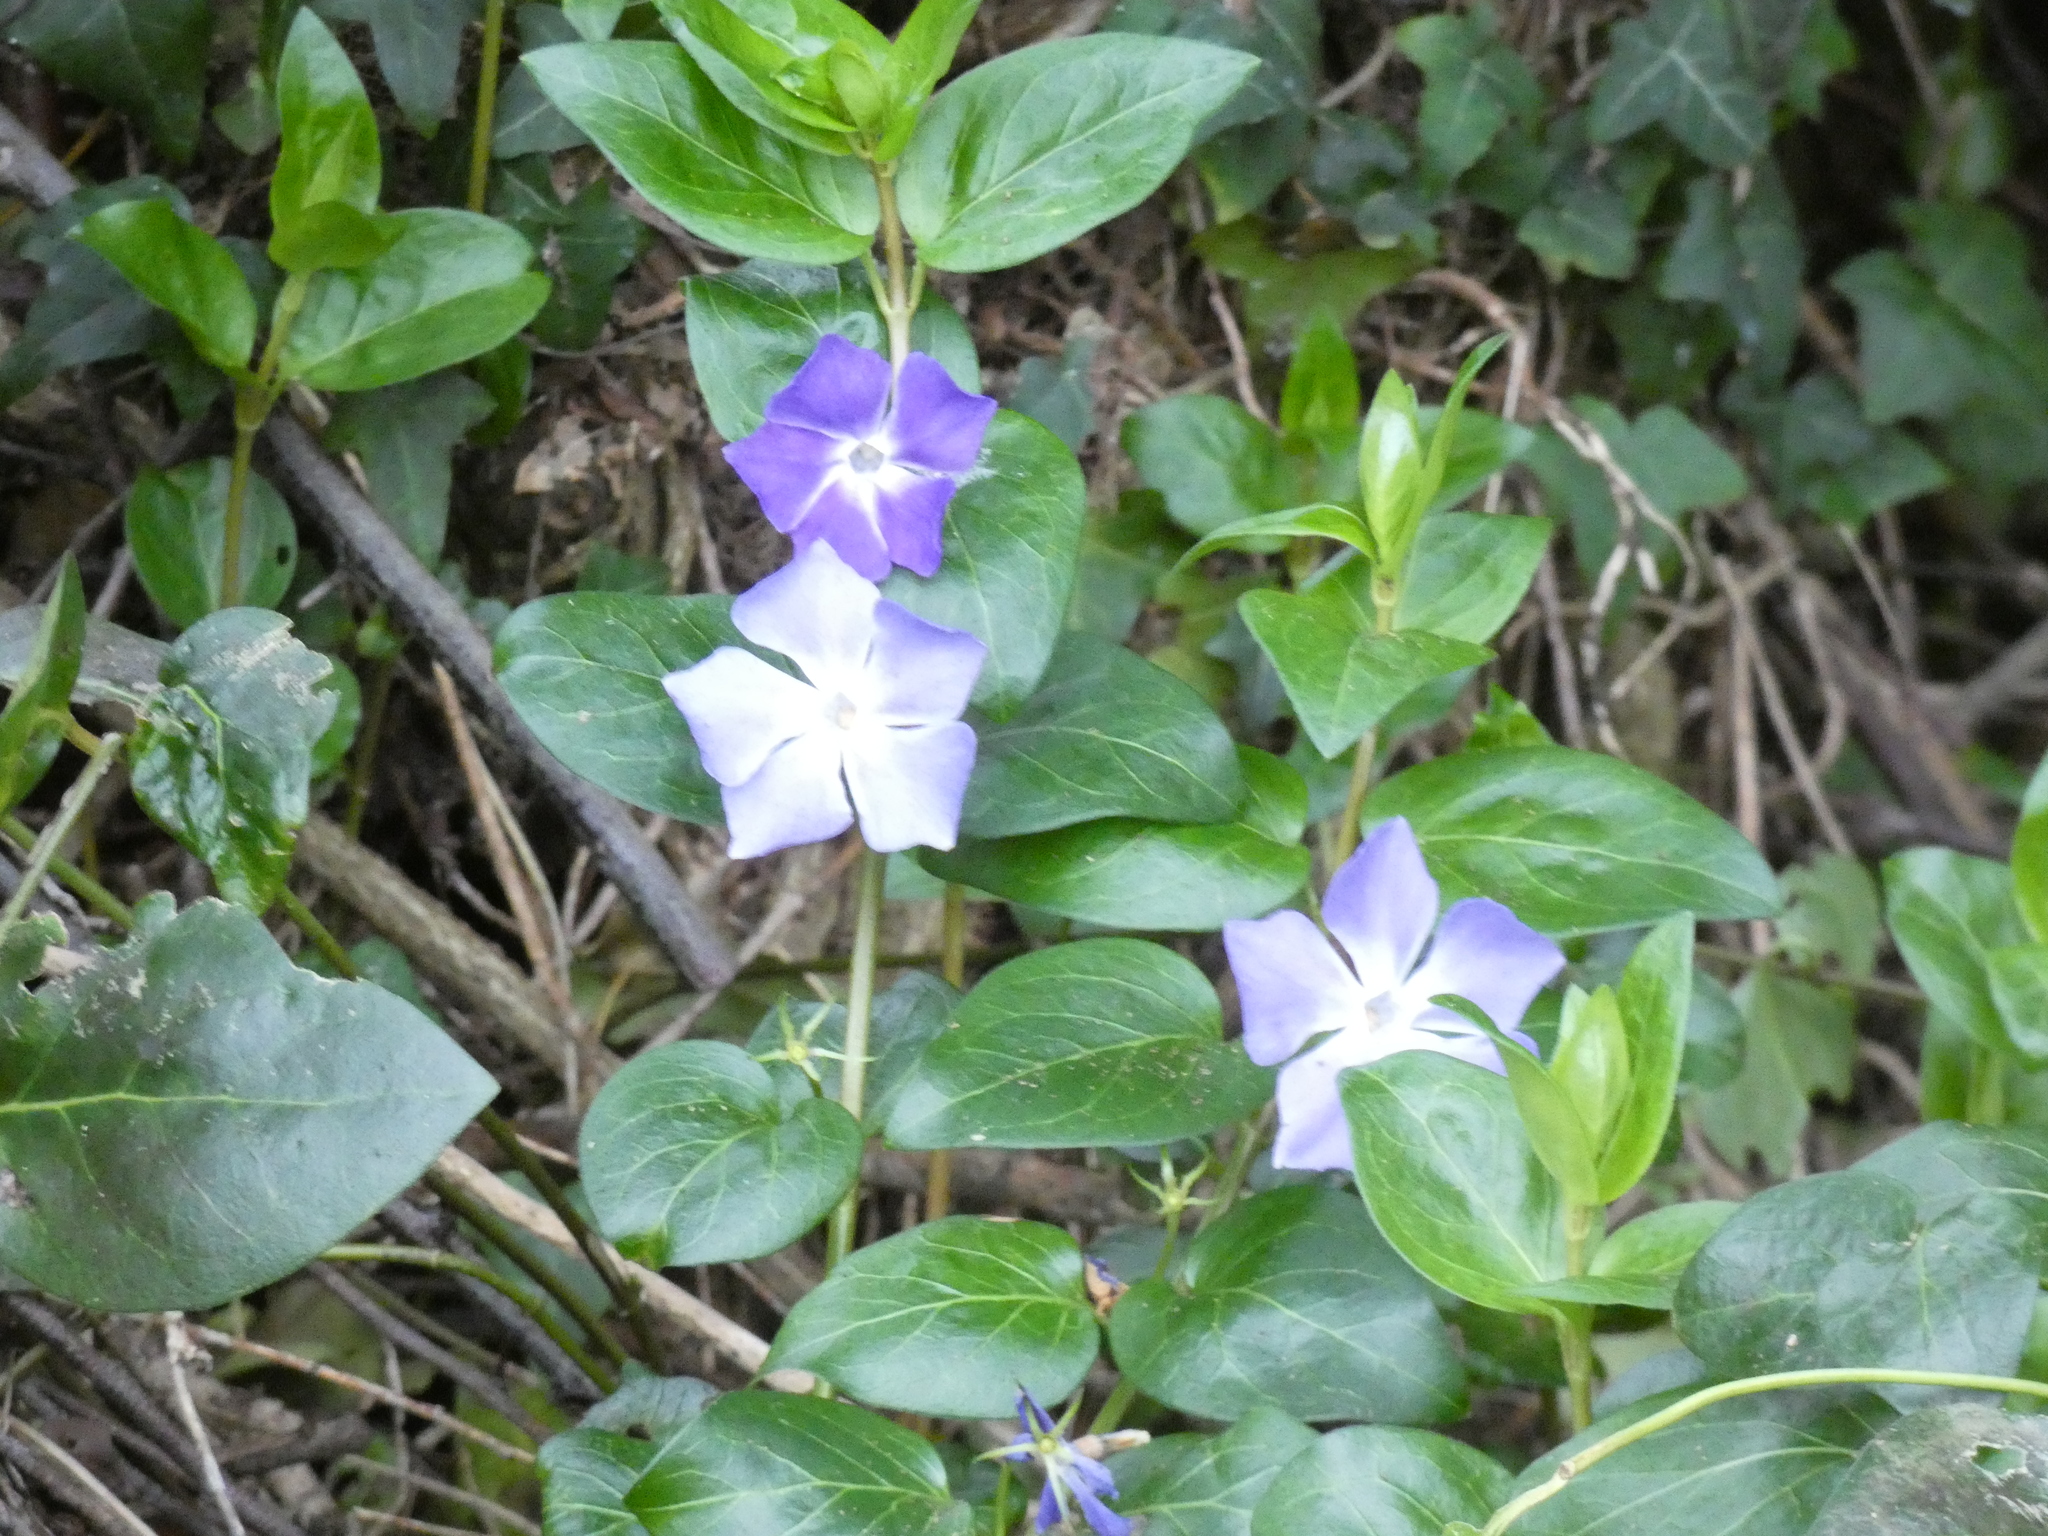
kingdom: Plantae
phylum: Tracheophyta
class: Magnoliopsida
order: Gentianales
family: Apocynaceae
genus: Vinca
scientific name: Vinca major
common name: Greater periwinkle
